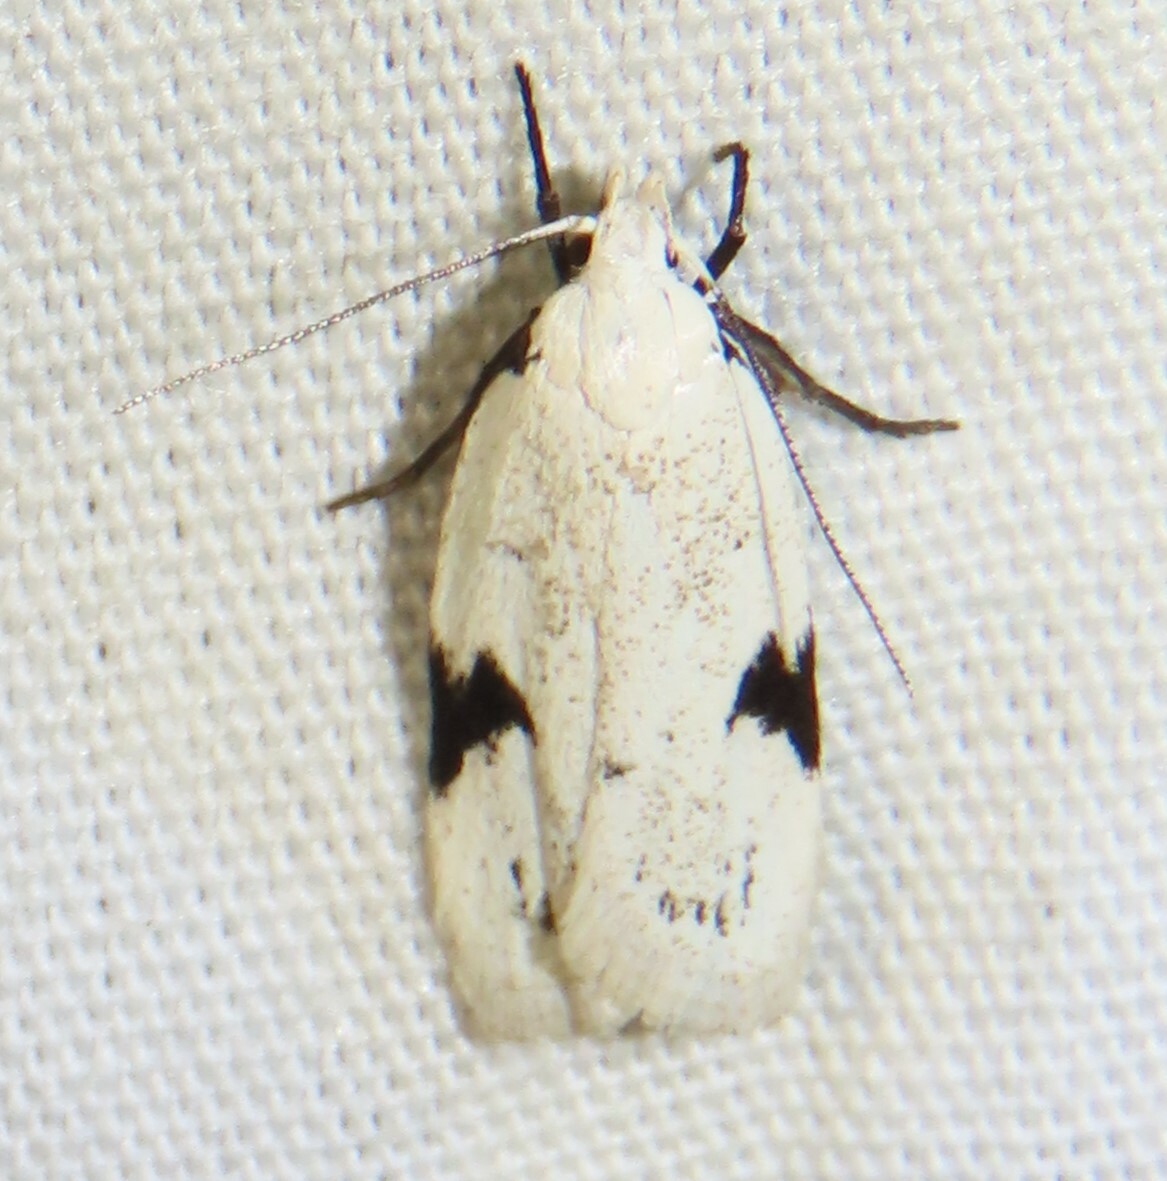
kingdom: Animalia
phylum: Arthropoda
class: Insecta
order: Lepidoptera
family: Oecophoridae
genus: Inga
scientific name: Inga sparsiciliella
